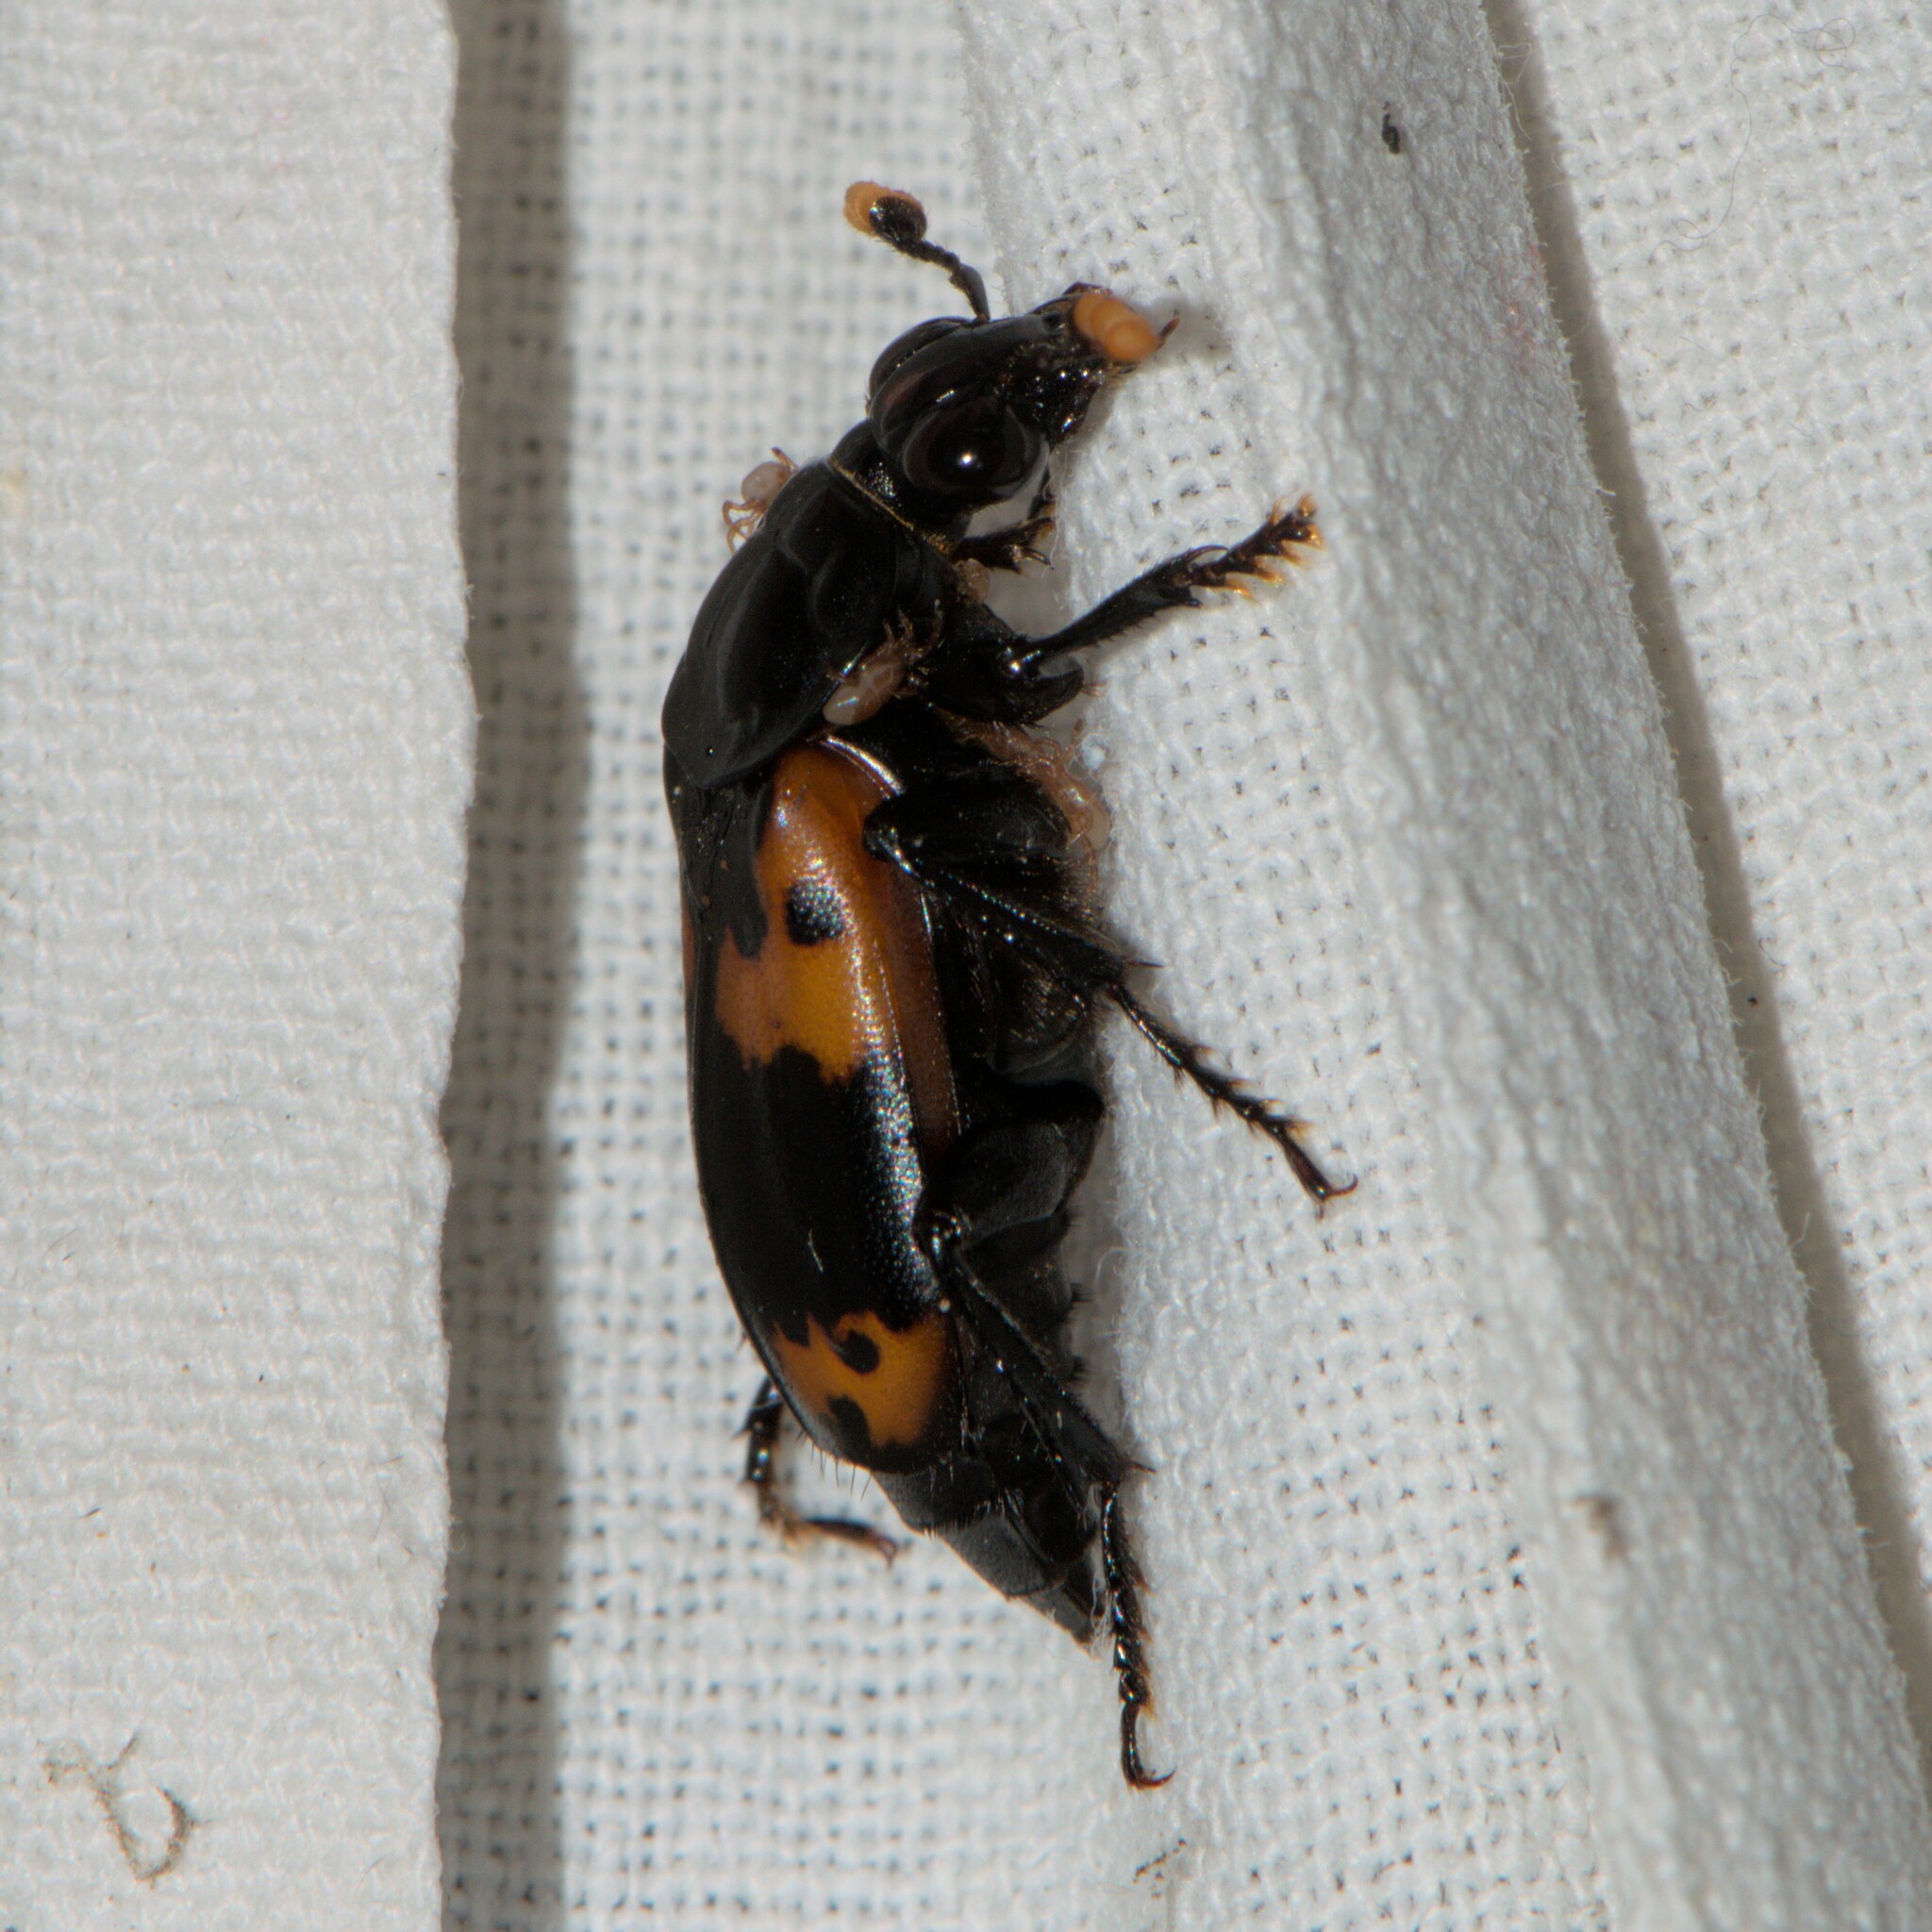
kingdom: Animalia
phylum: Arthropoda
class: Insecta
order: Coleoptera
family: Staphylinidae
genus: Nicrophorus
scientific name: Nicrophorus nepalensis
